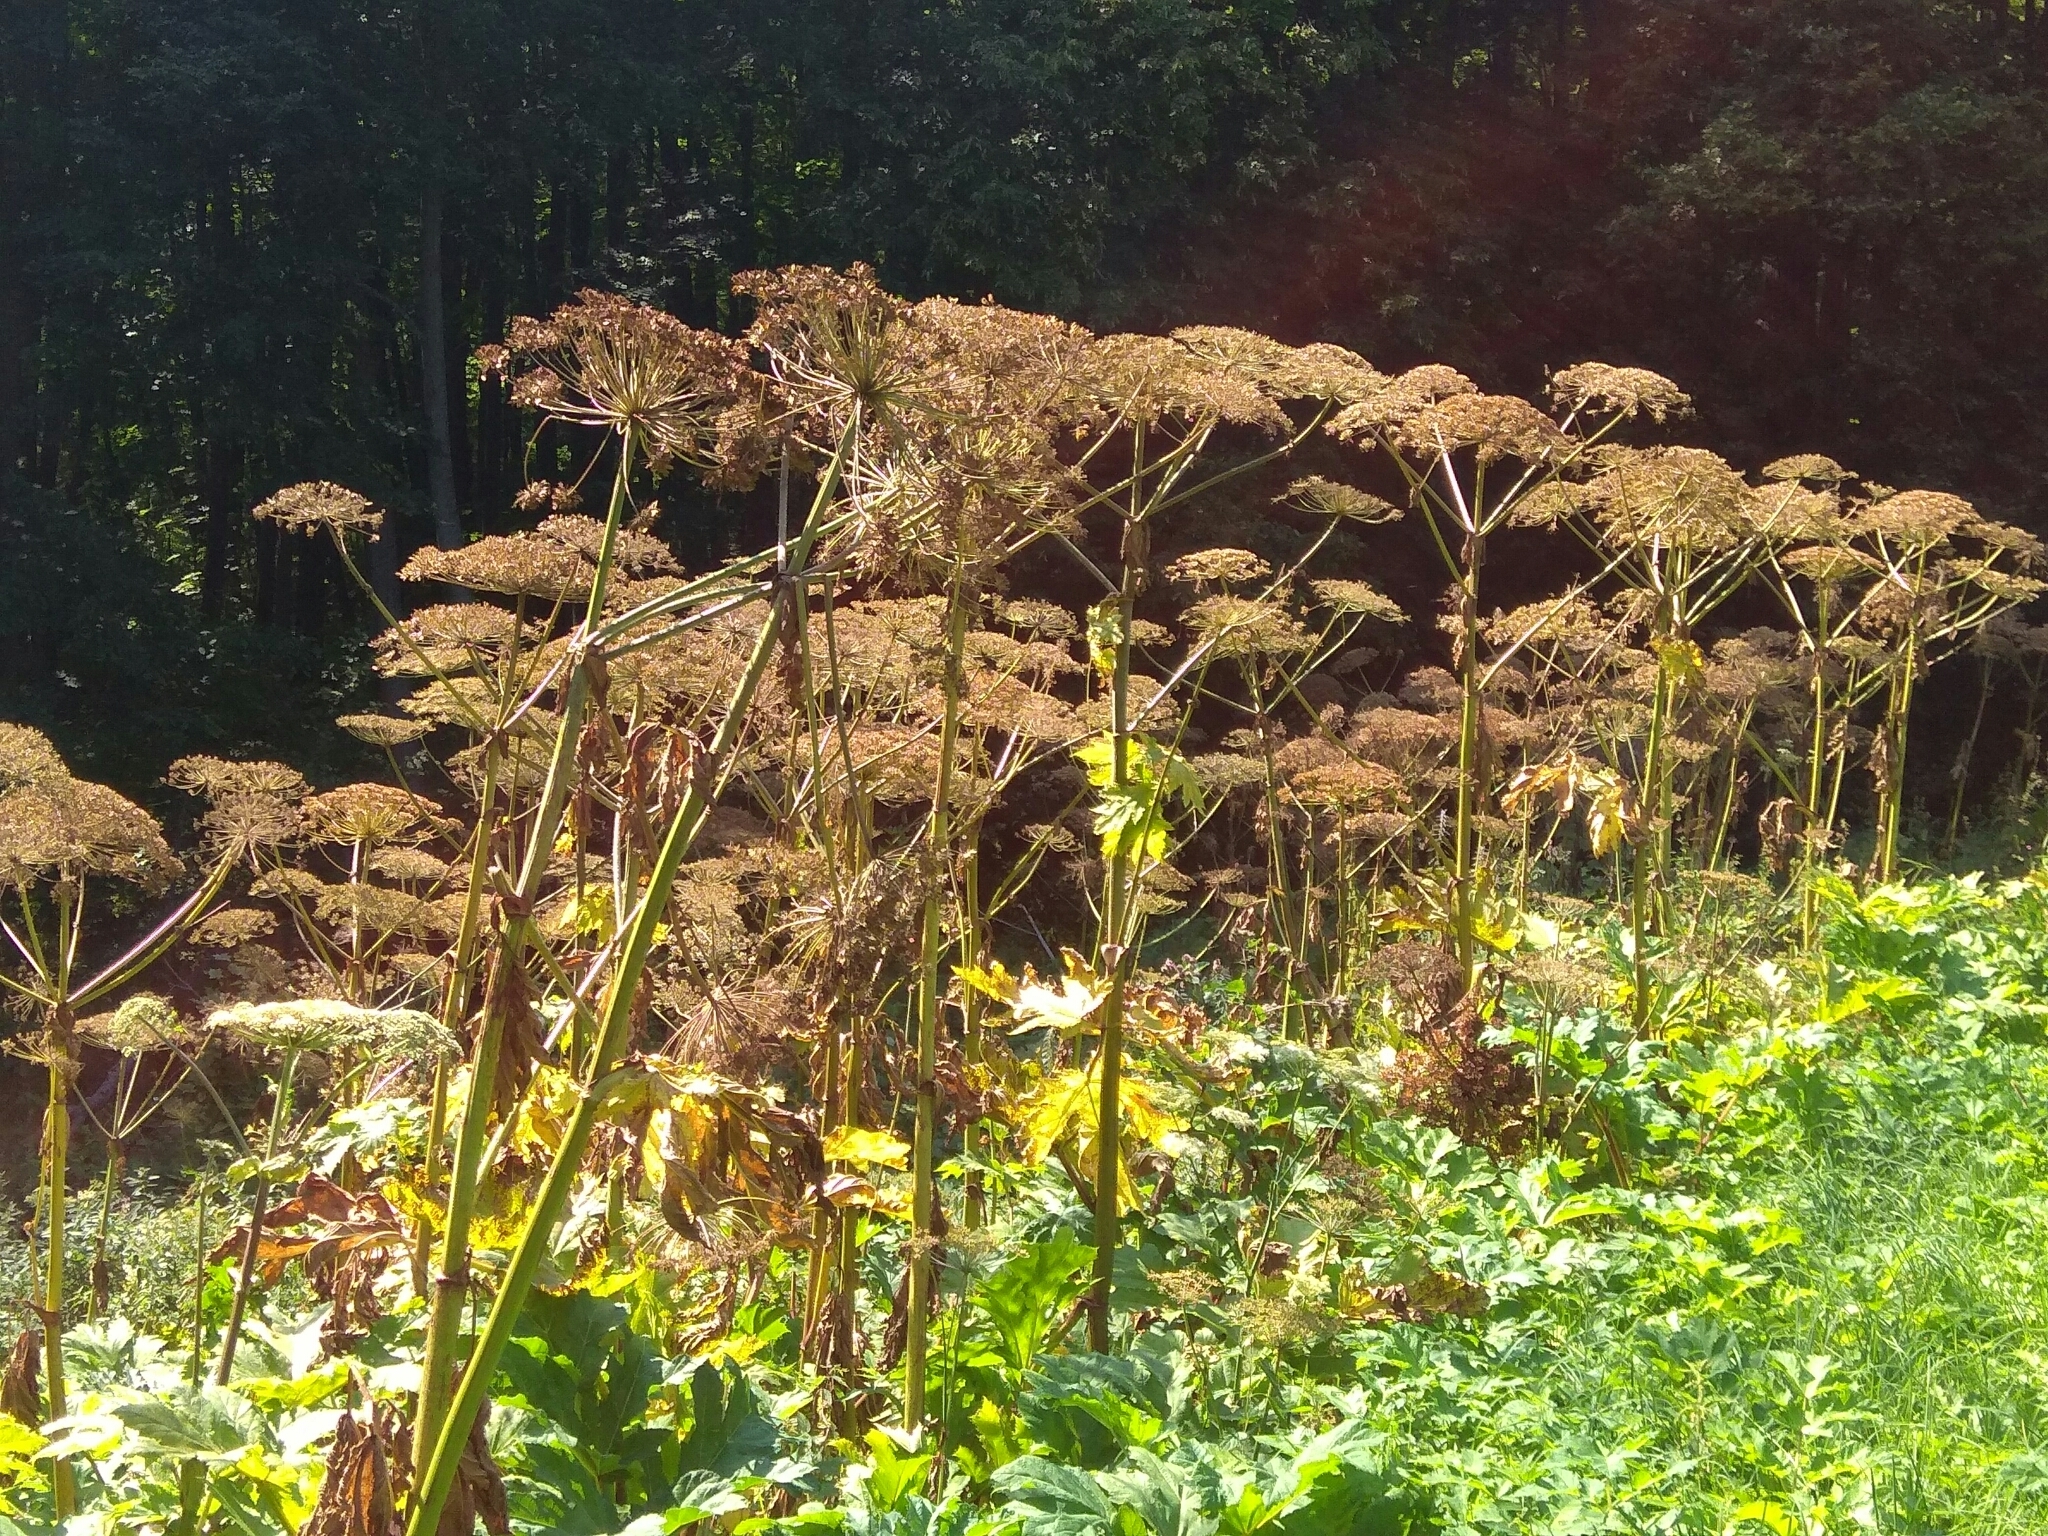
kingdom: Plantae
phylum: Tracheophyta
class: Magnoliopsida
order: Apiales
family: Apiaceae
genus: Heracleum
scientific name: Heracleum sosnowskyi
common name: Sosnowsky's hogweed
